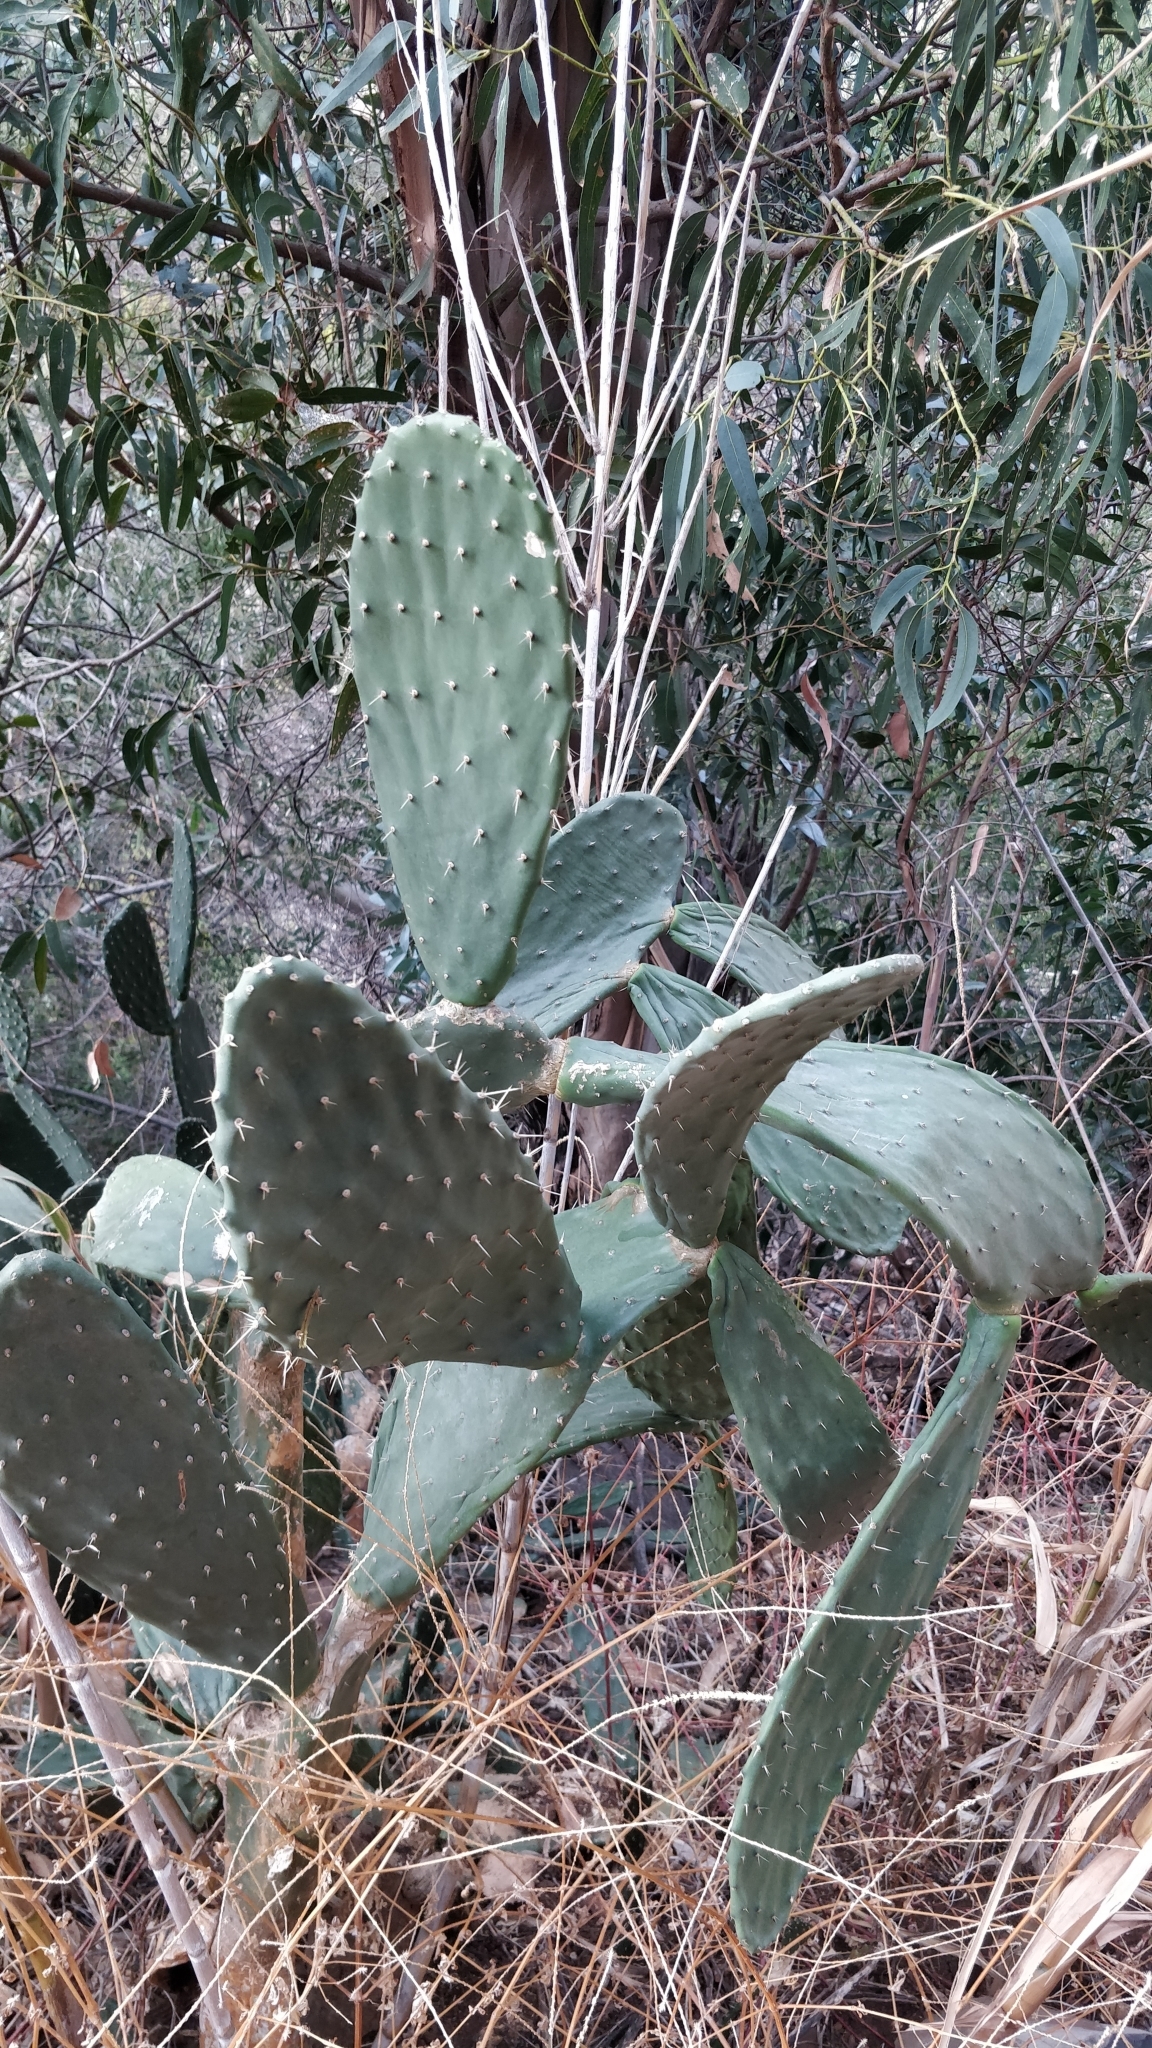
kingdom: Plantae
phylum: Tracheophyta
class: Magnoliopsida
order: Caryophyllales
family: Cactaceae
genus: Opuntia
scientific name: Opuntia ficus-indica
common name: Barbary fig
